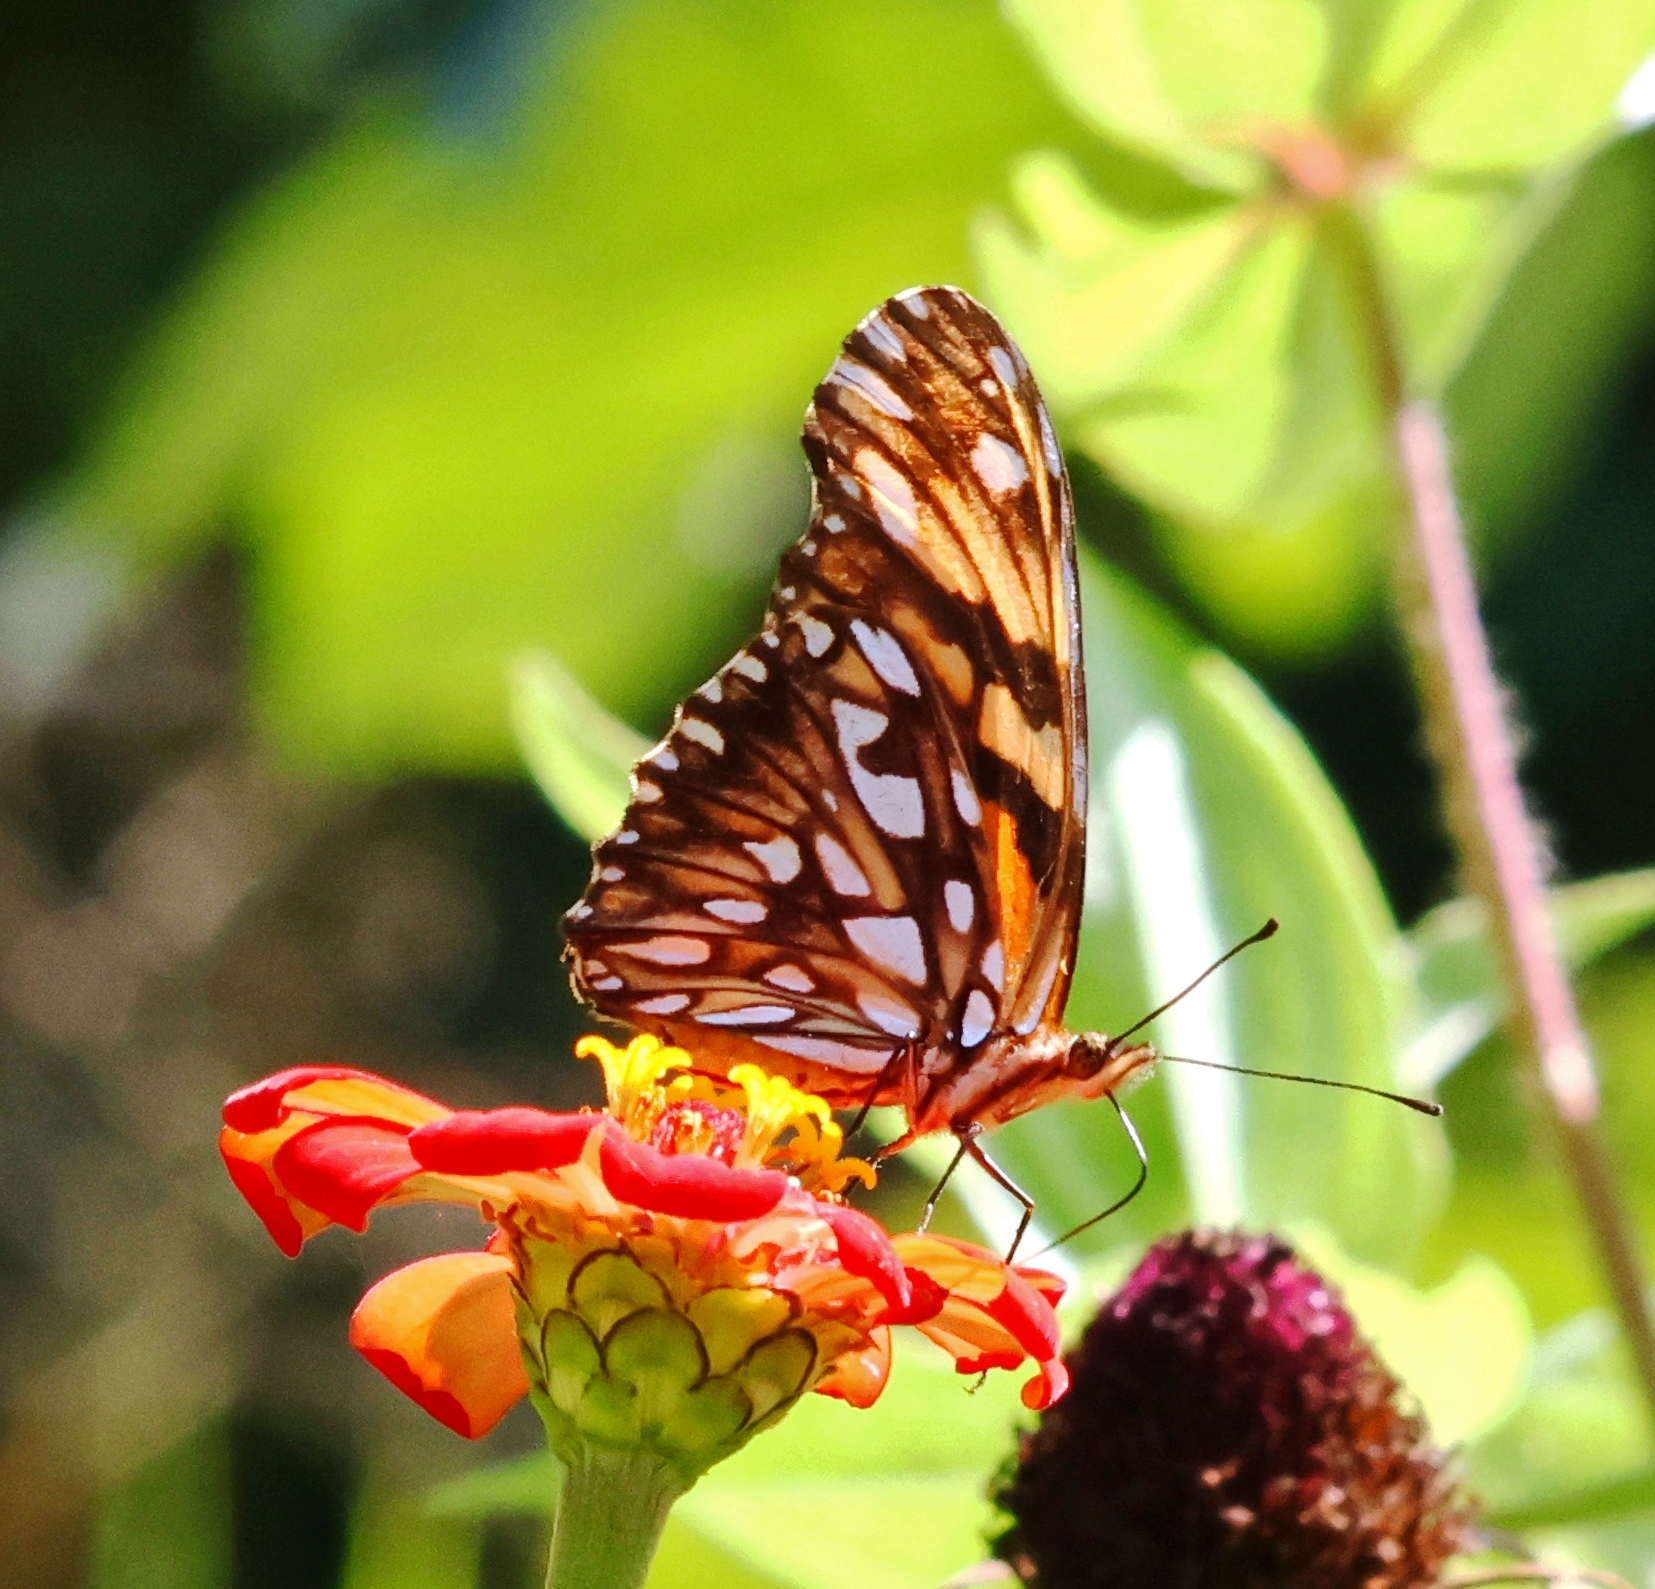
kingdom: Animalia
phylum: Arthropoda
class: Insecta
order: Lepidoptera
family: Nymphalidae
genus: Dione
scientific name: Dione juno
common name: Juno silverspot
